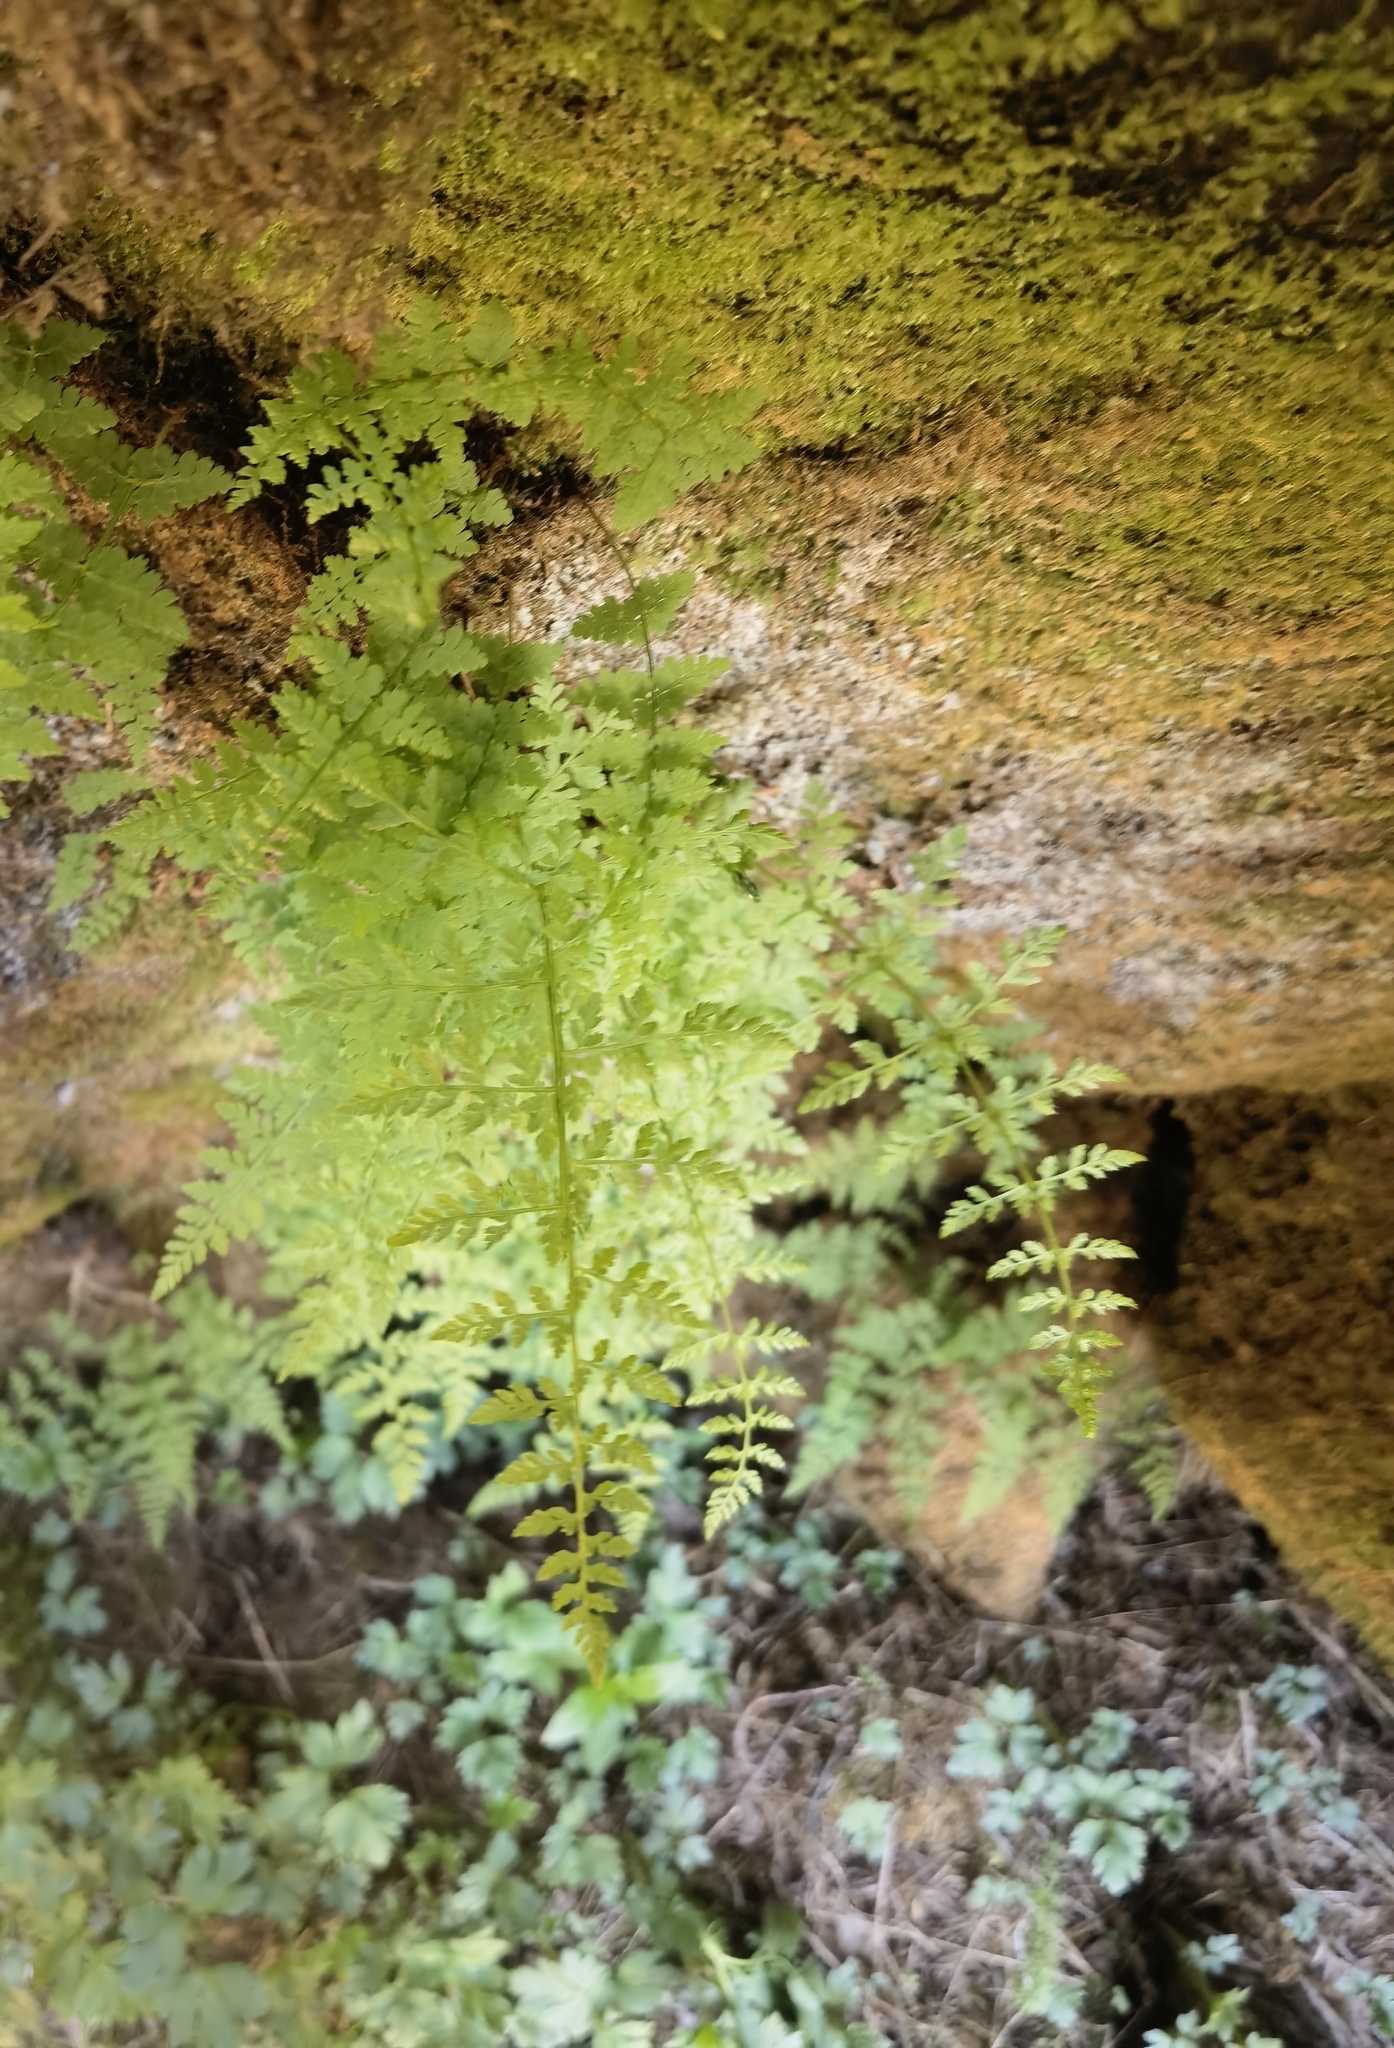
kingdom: Plantae
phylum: Tracheophyta
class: Polypodiopsida
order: Polypodiales
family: Cystopteridaceae
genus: Cystopteris
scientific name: Cystopteris fragilis
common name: Brittle bladder fern
